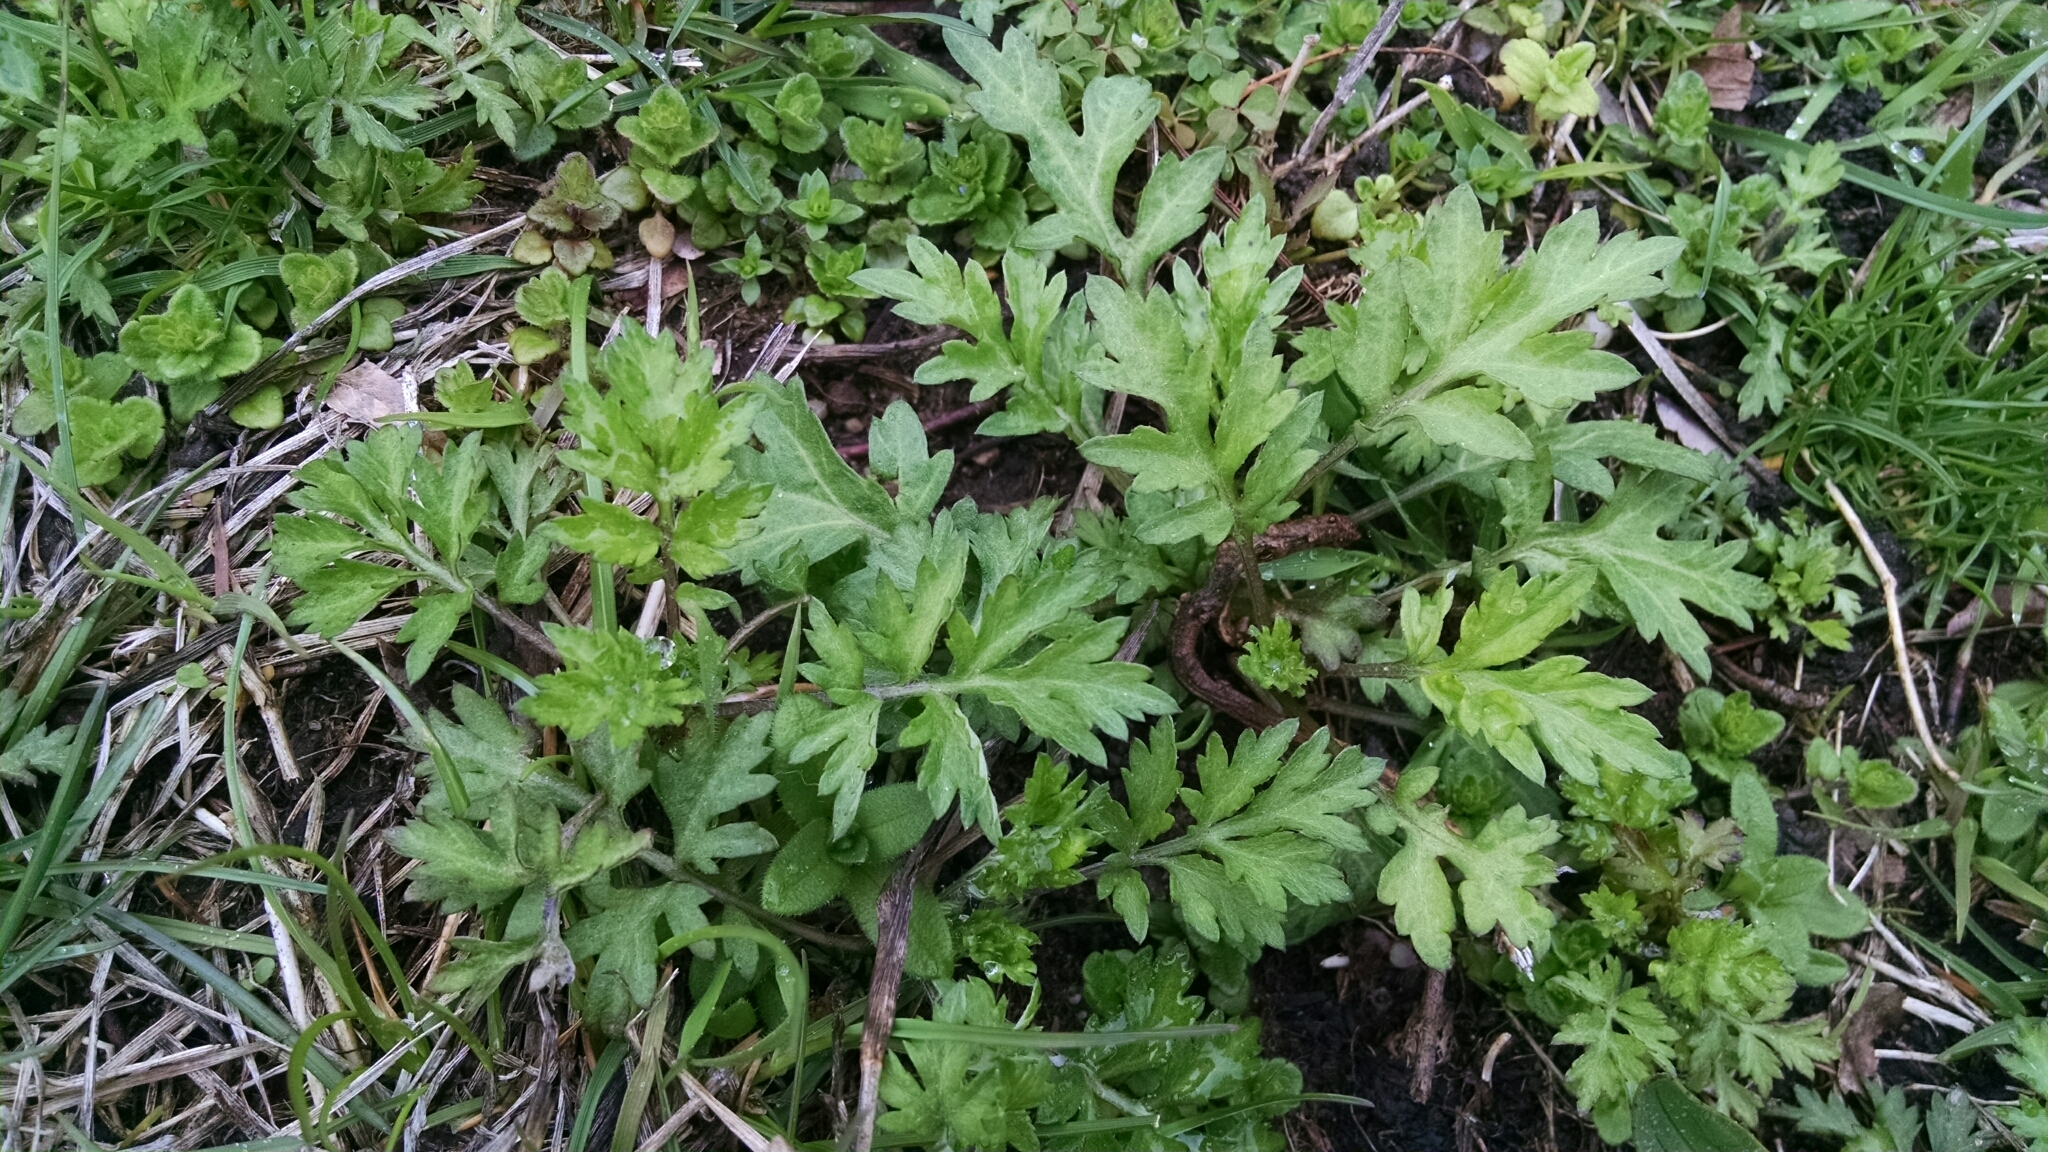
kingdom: Plantae
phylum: Tracheophyta
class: Magnoliopsida
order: Asterales
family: Asteraceae
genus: Artemisia
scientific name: Artemisia vulgaris
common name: Mugwort
